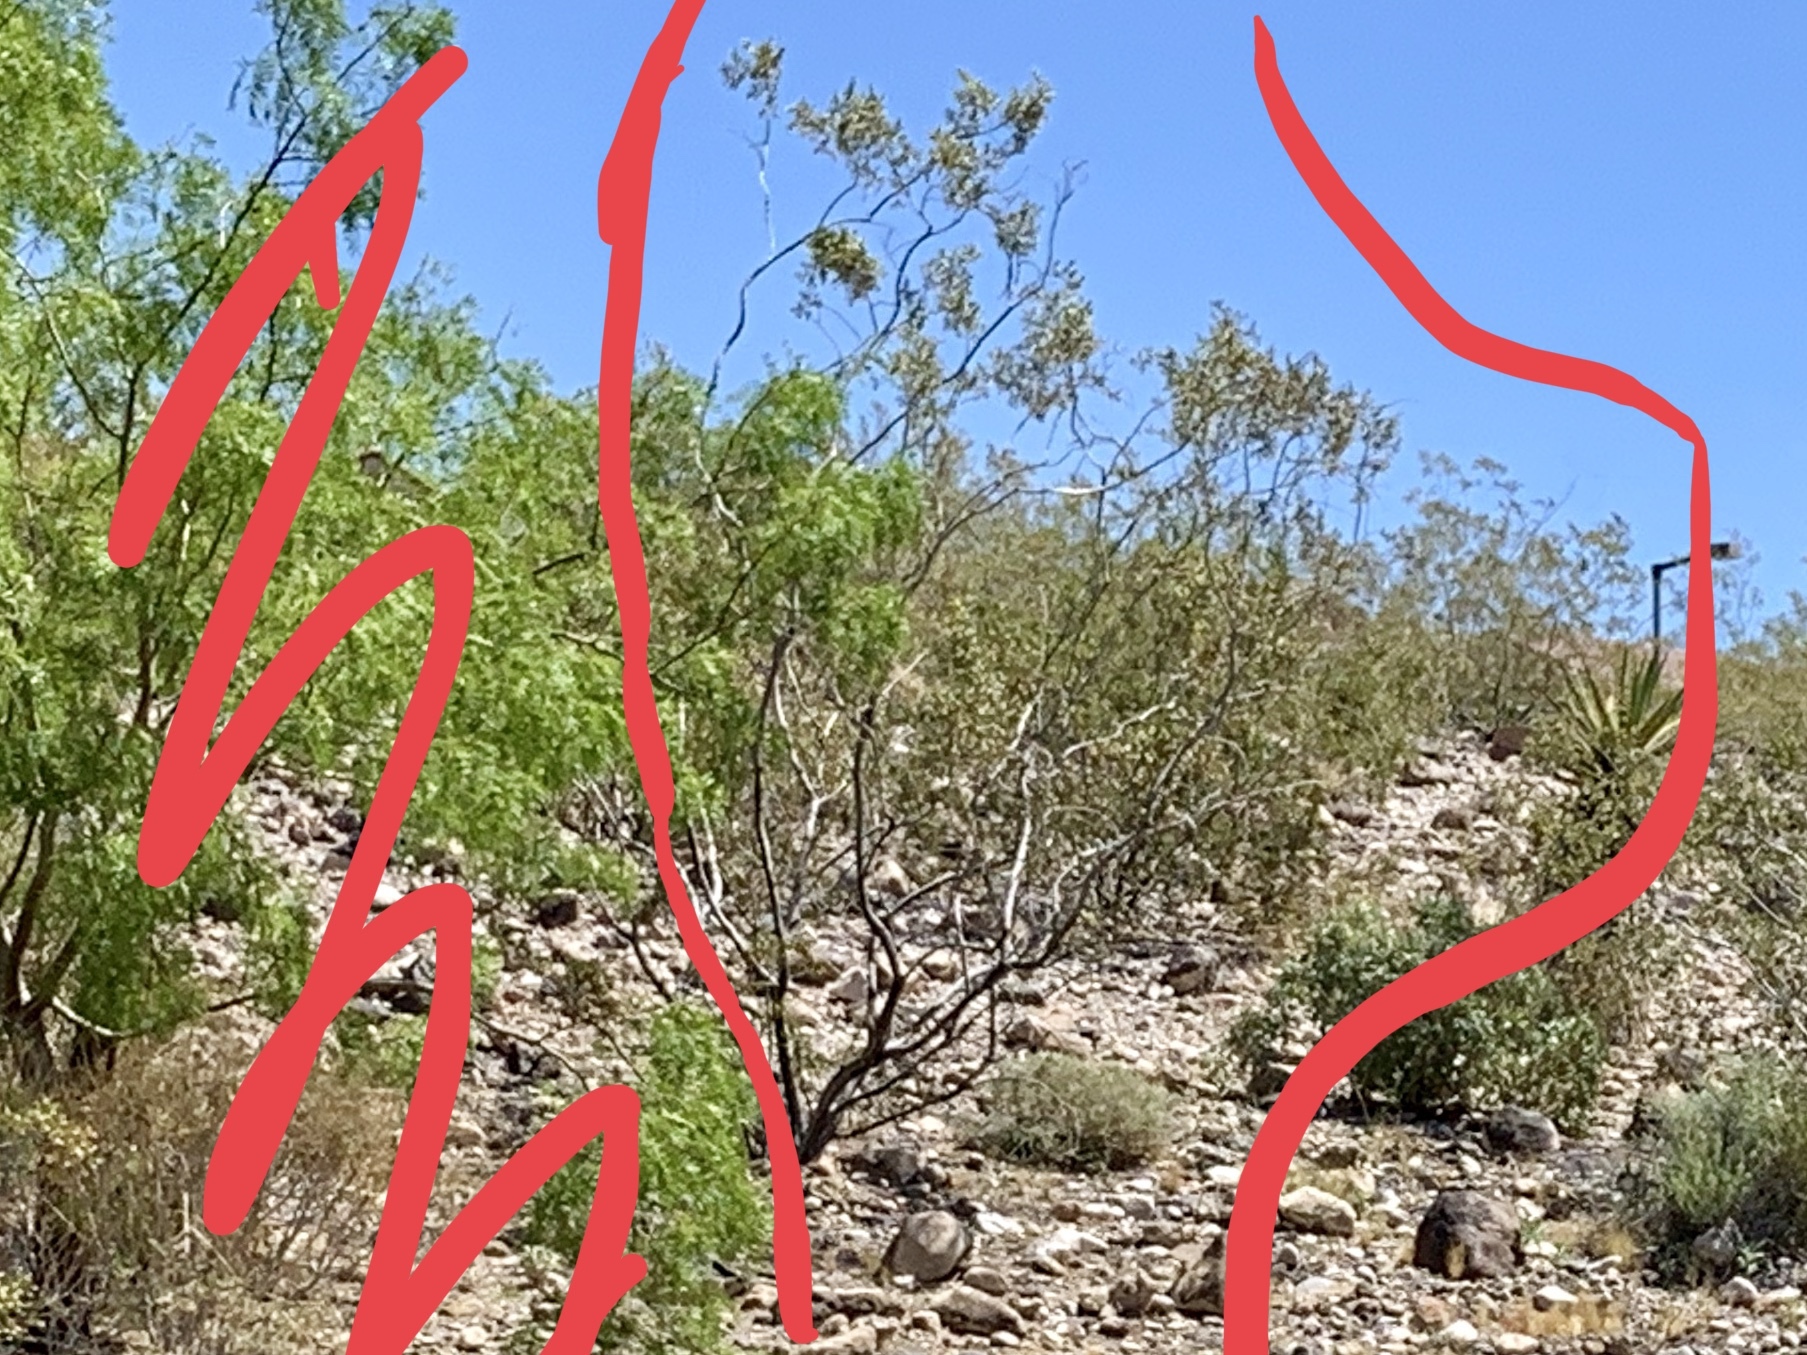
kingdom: Plantae
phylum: Tracheophyta
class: Magnoliopsida
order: Zygophyllales
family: Zygophyllaceae
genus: Larrea
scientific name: Larrea tridentata
